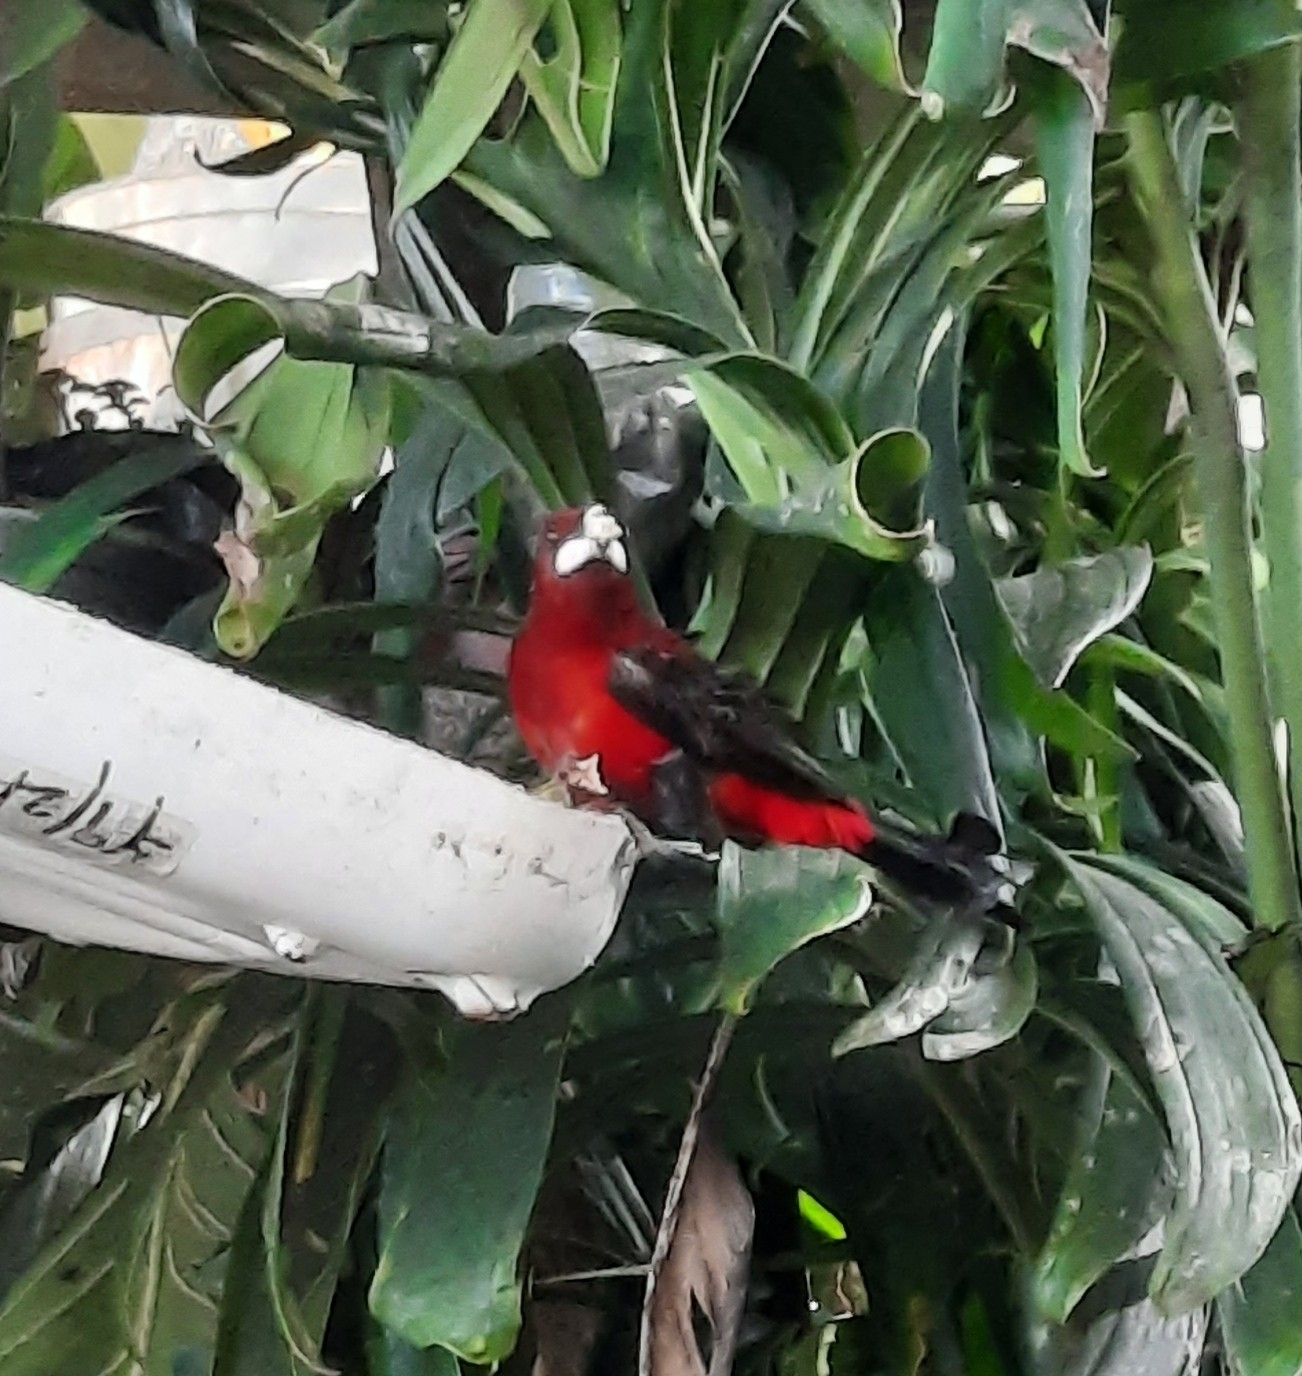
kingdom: Animalia
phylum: Chordata
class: Aves
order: Passeriformes
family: Thraupidae
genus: Ramphocelus
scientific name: Ramphocelus dimidiatus
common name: Crimson-backed tanager
